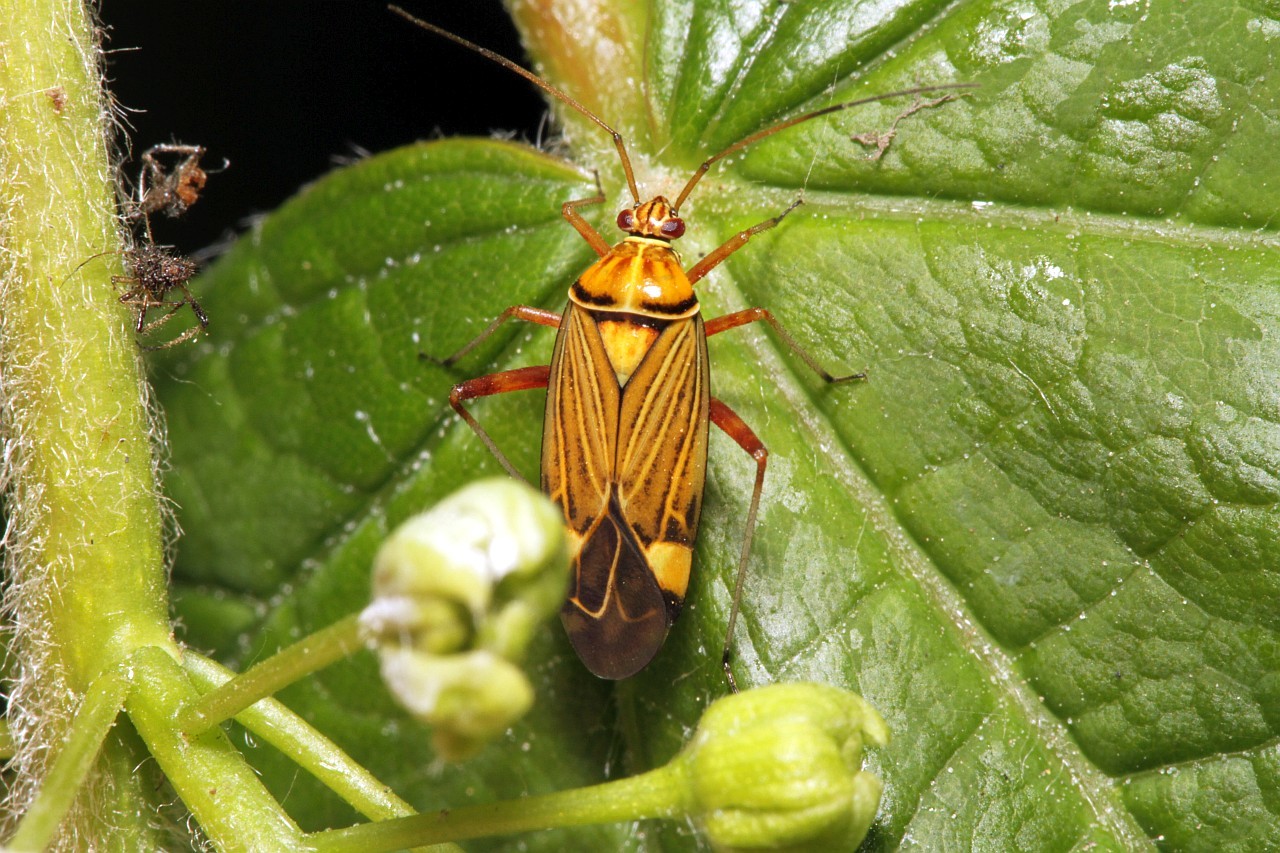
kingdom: Animalia
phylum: Arthropoda
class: Insecta
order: Hemiptera
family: Miridae
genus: Rhabdomiris
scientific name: Rhabdomiris striatellus
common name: Plant bug
